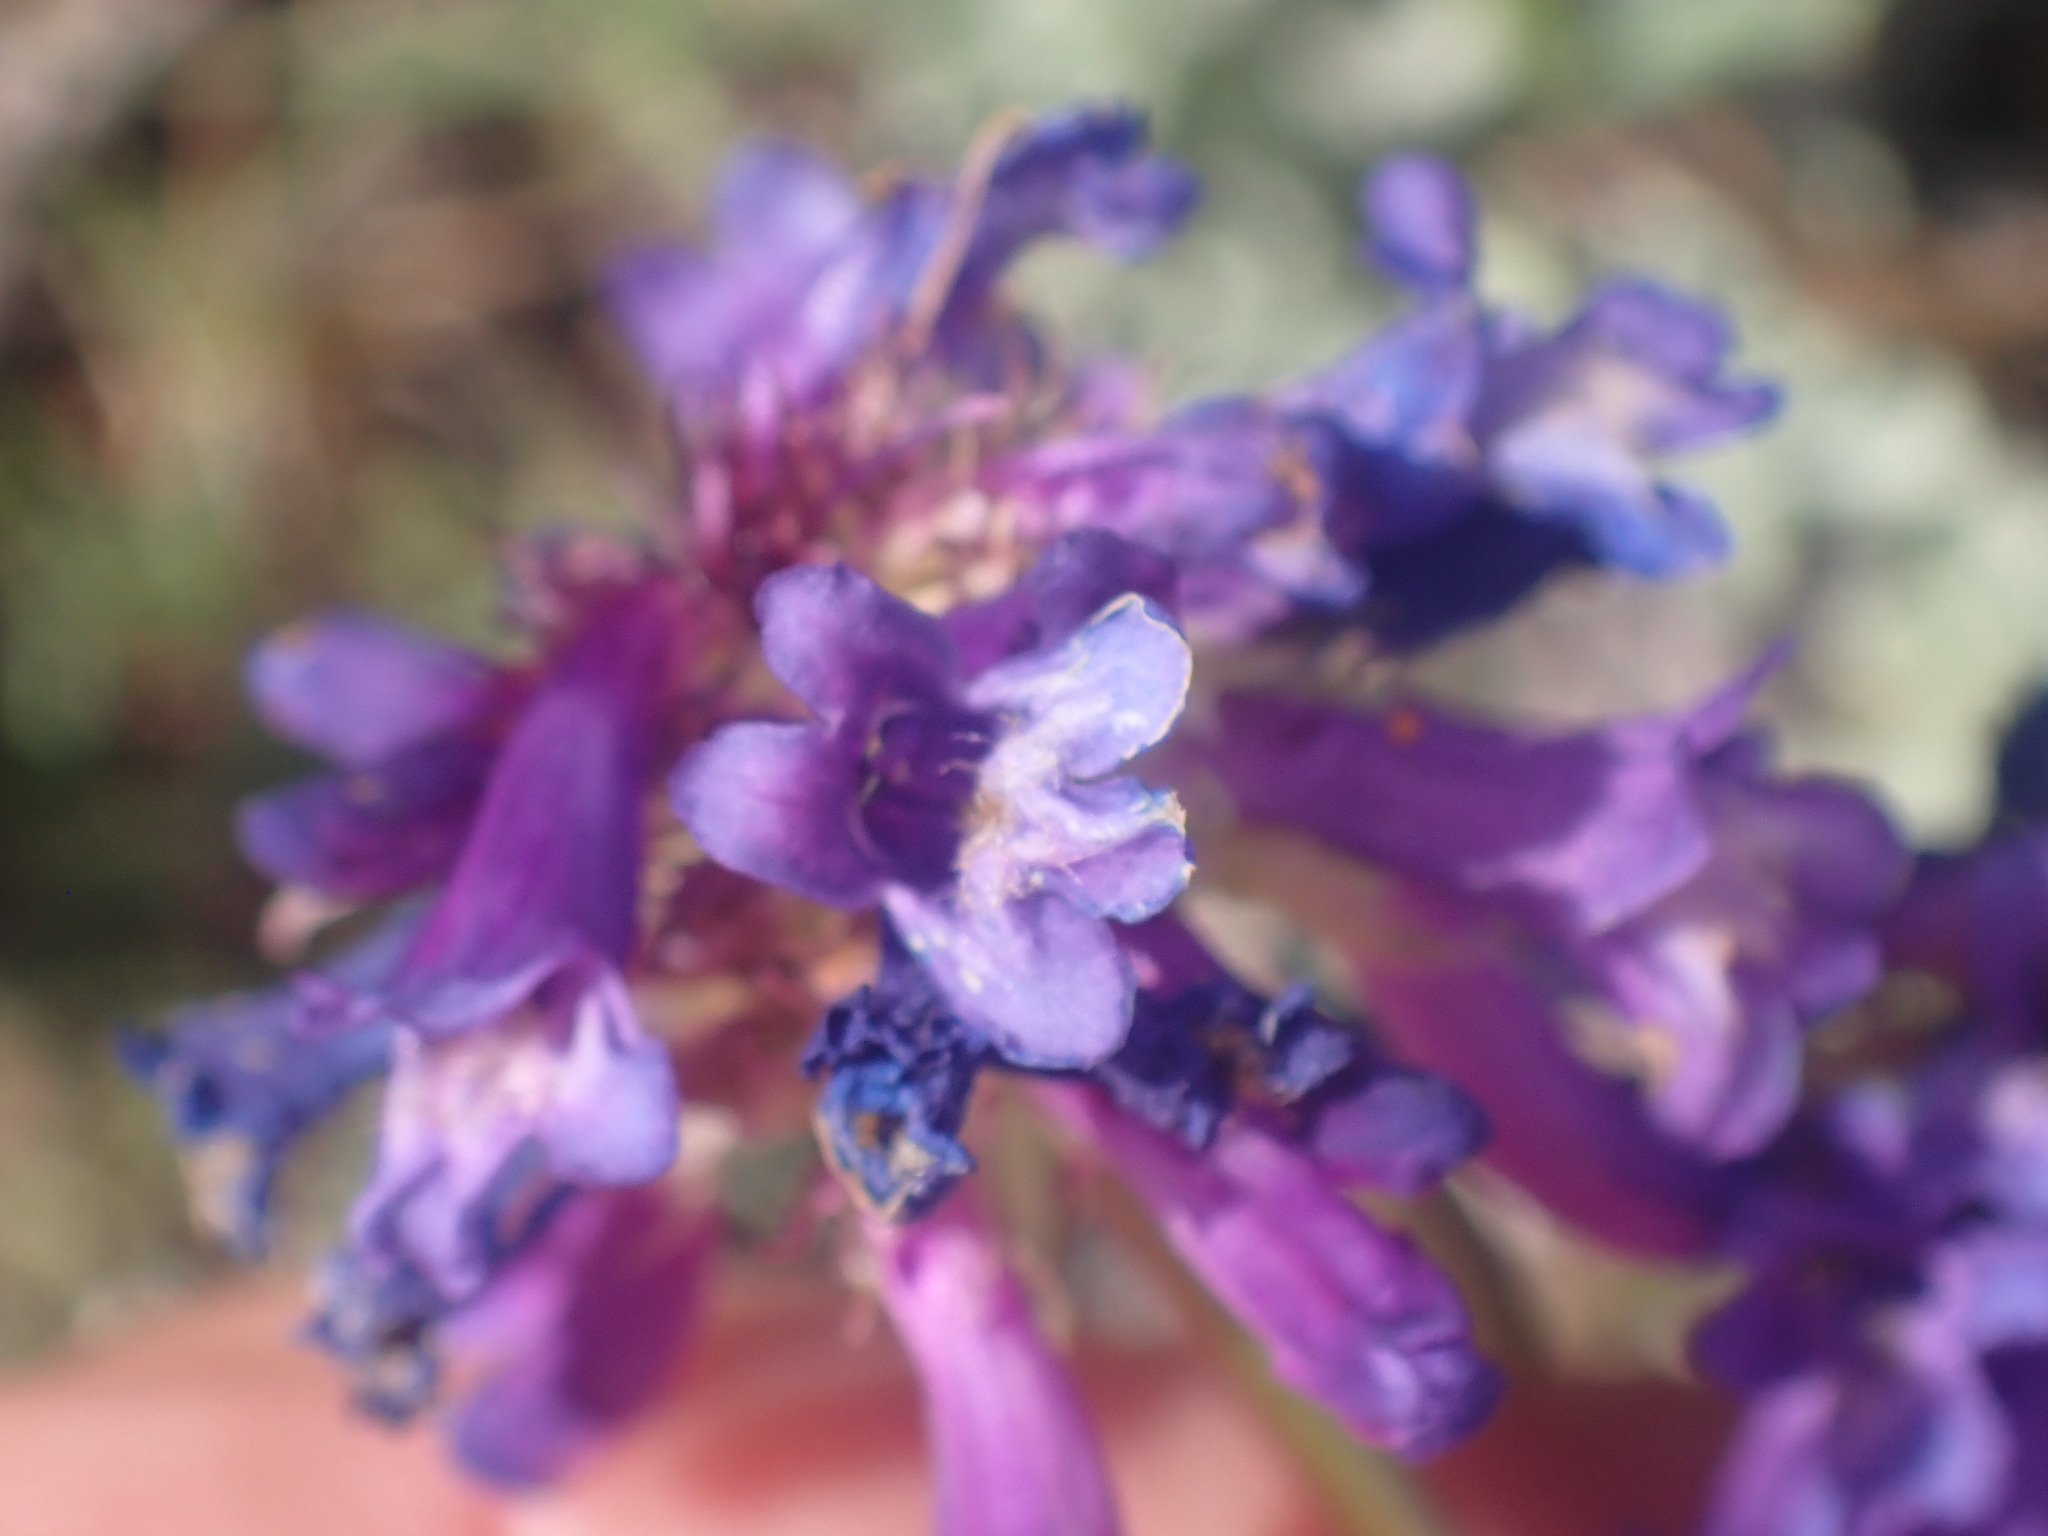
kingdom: Plantae
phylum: Tracheophyta
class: Magnoliopsida
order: Lamiales
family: Plantaginaceae
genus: Penstemon
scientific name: Penstemon procerus
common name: Small-flower penstemon
